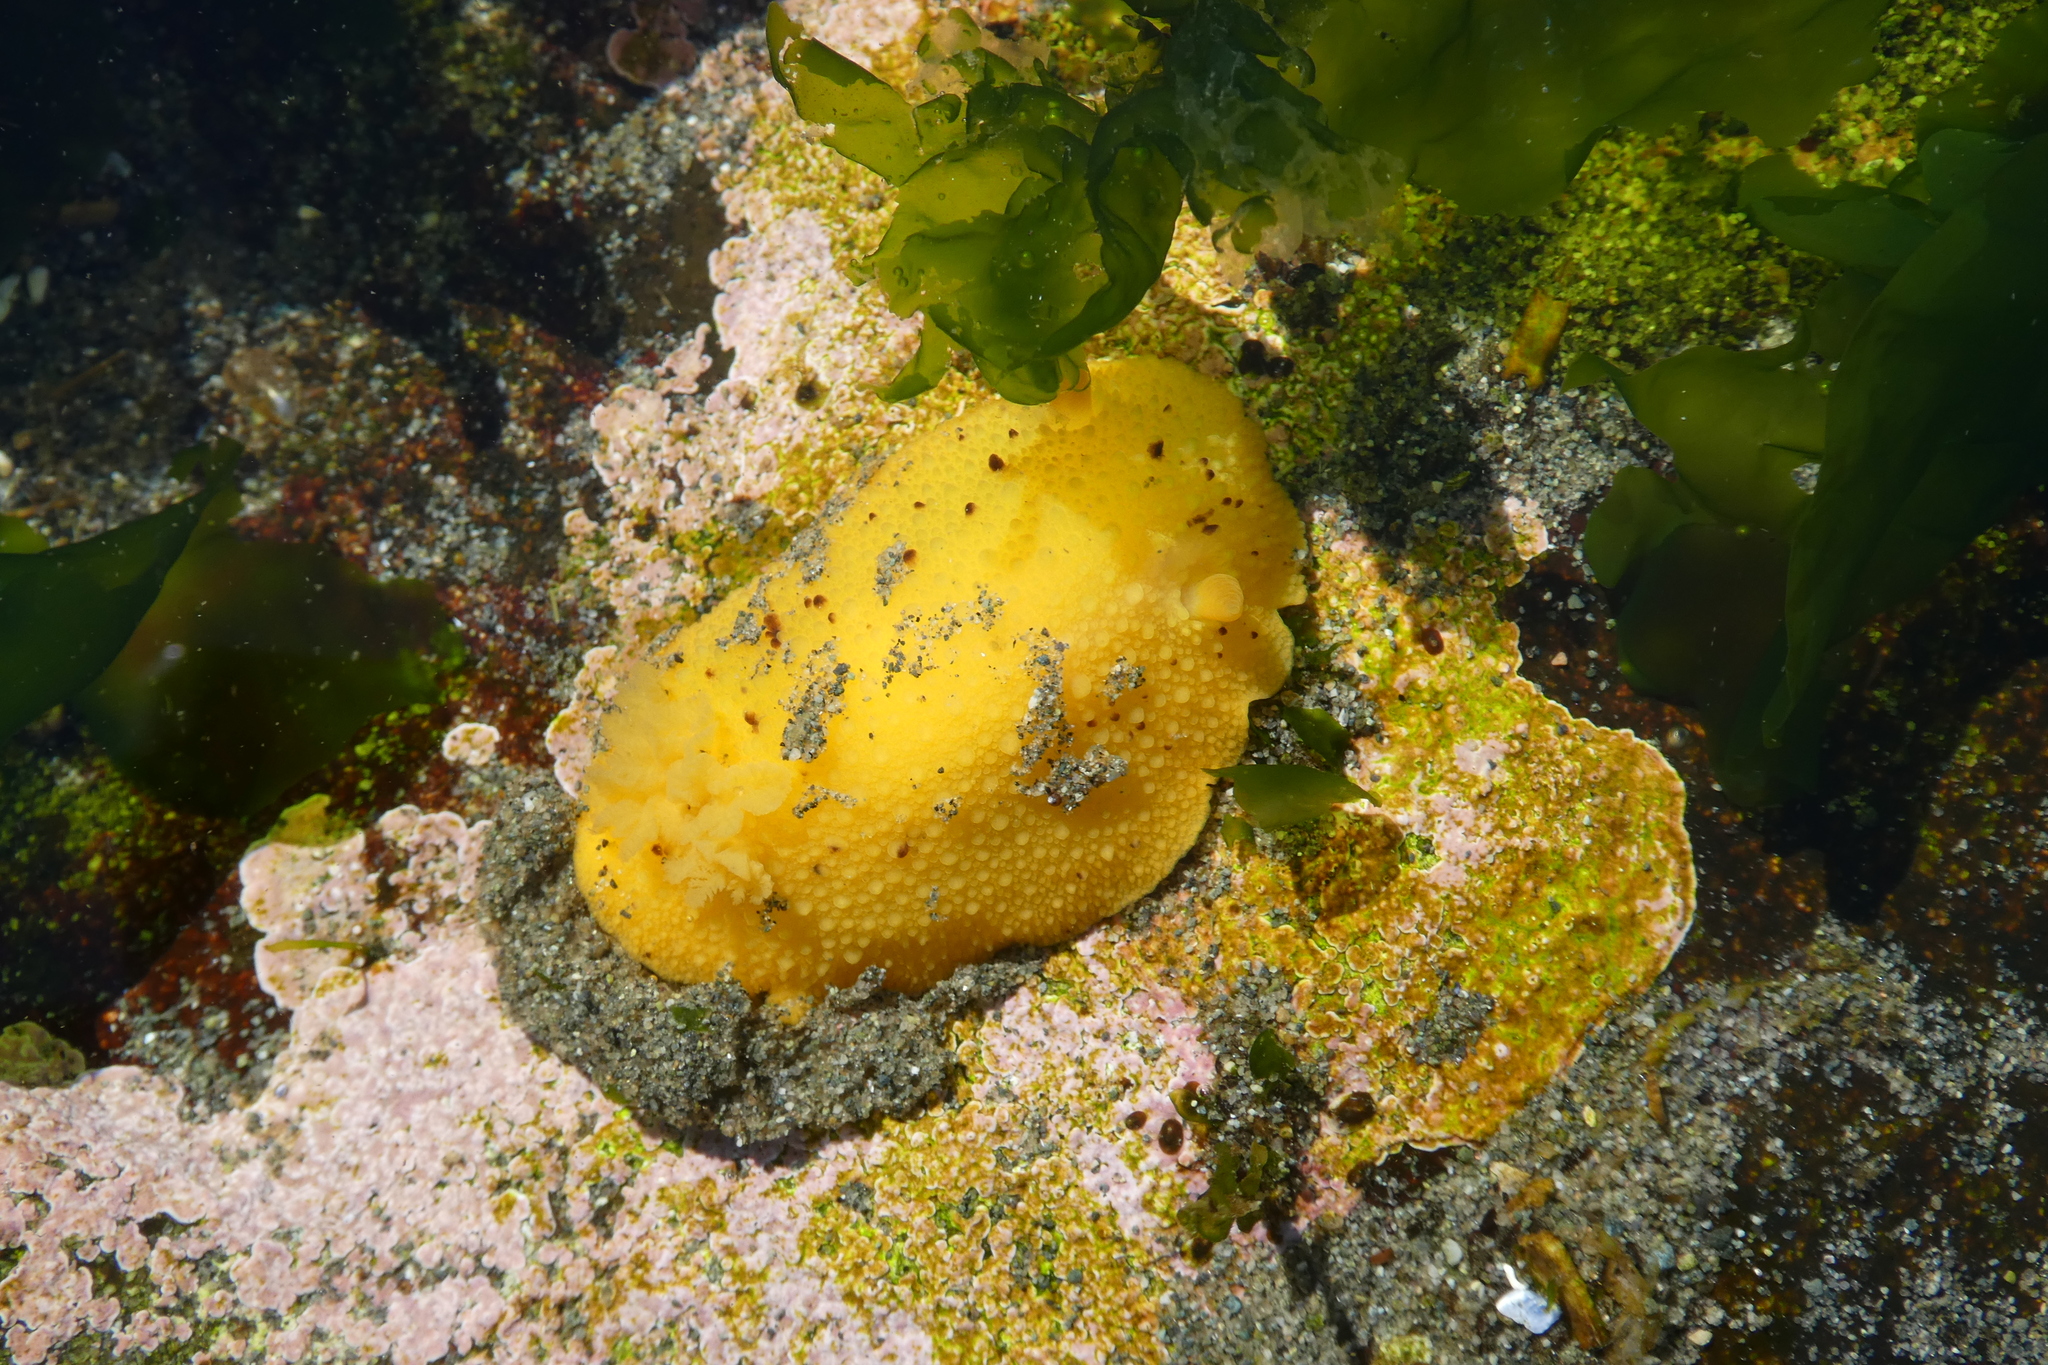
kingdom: Animalia
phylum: Mollusca
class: Gastropoda
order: Nudibranchia
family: Dorididae
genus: Doris
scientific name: Doris montereyensis
